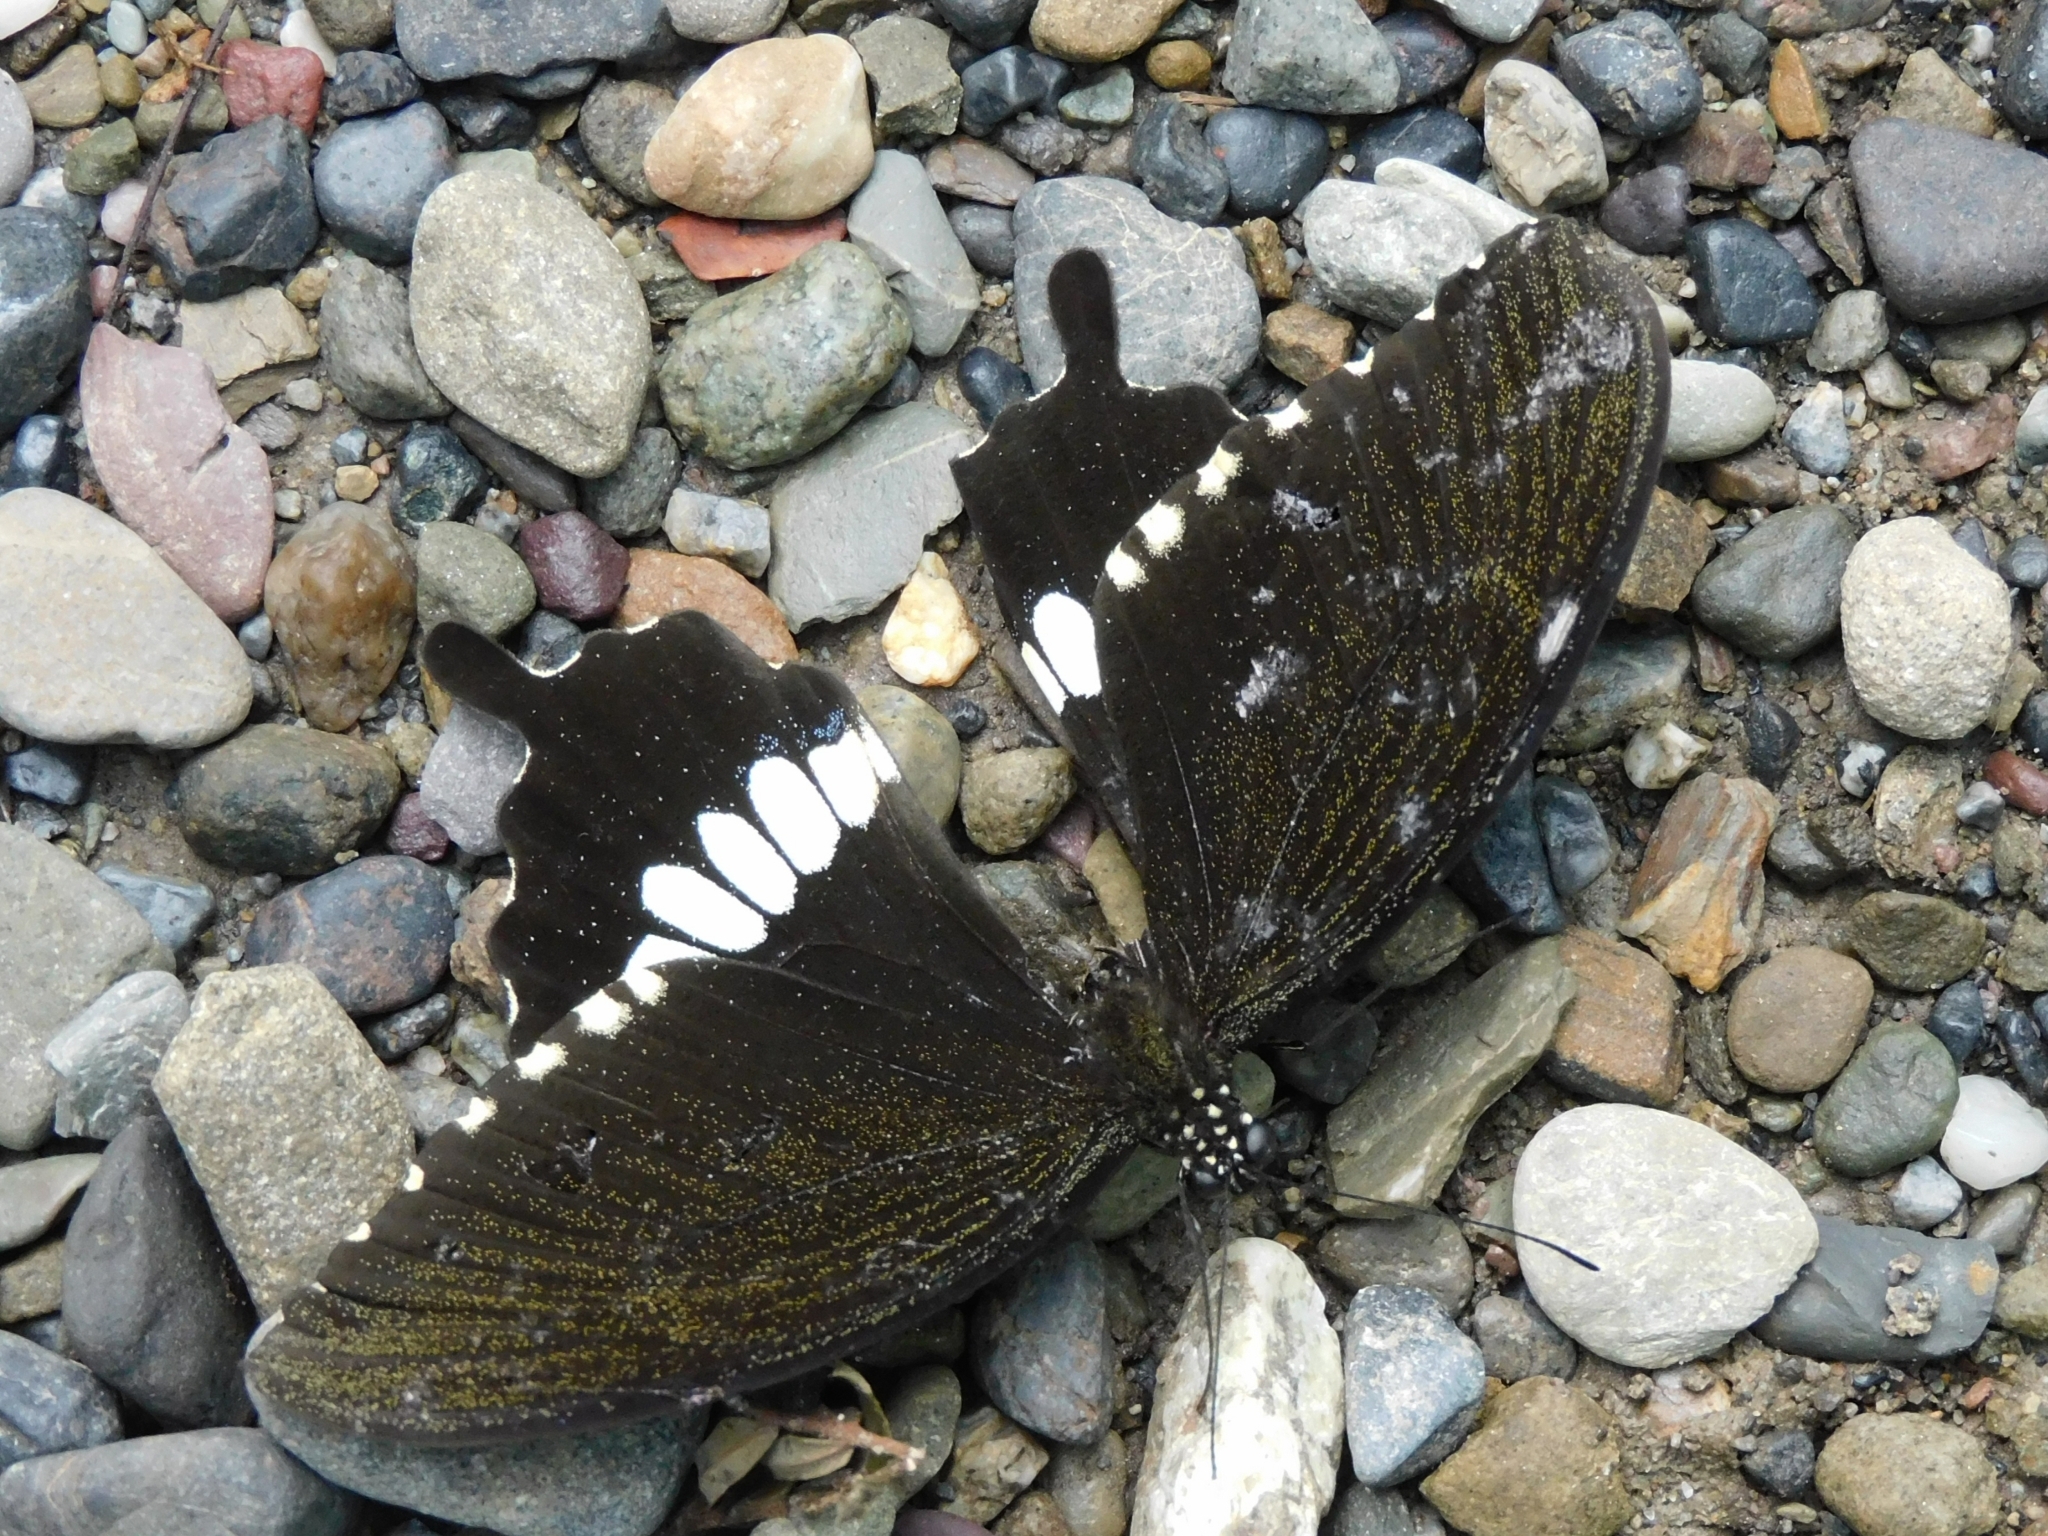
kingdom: Animalia
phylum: Arthropoda
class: Insecta
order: Lepidoptera
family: Papilionidae
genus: Papilio
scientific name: Papilio polytes
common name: Common mormon
